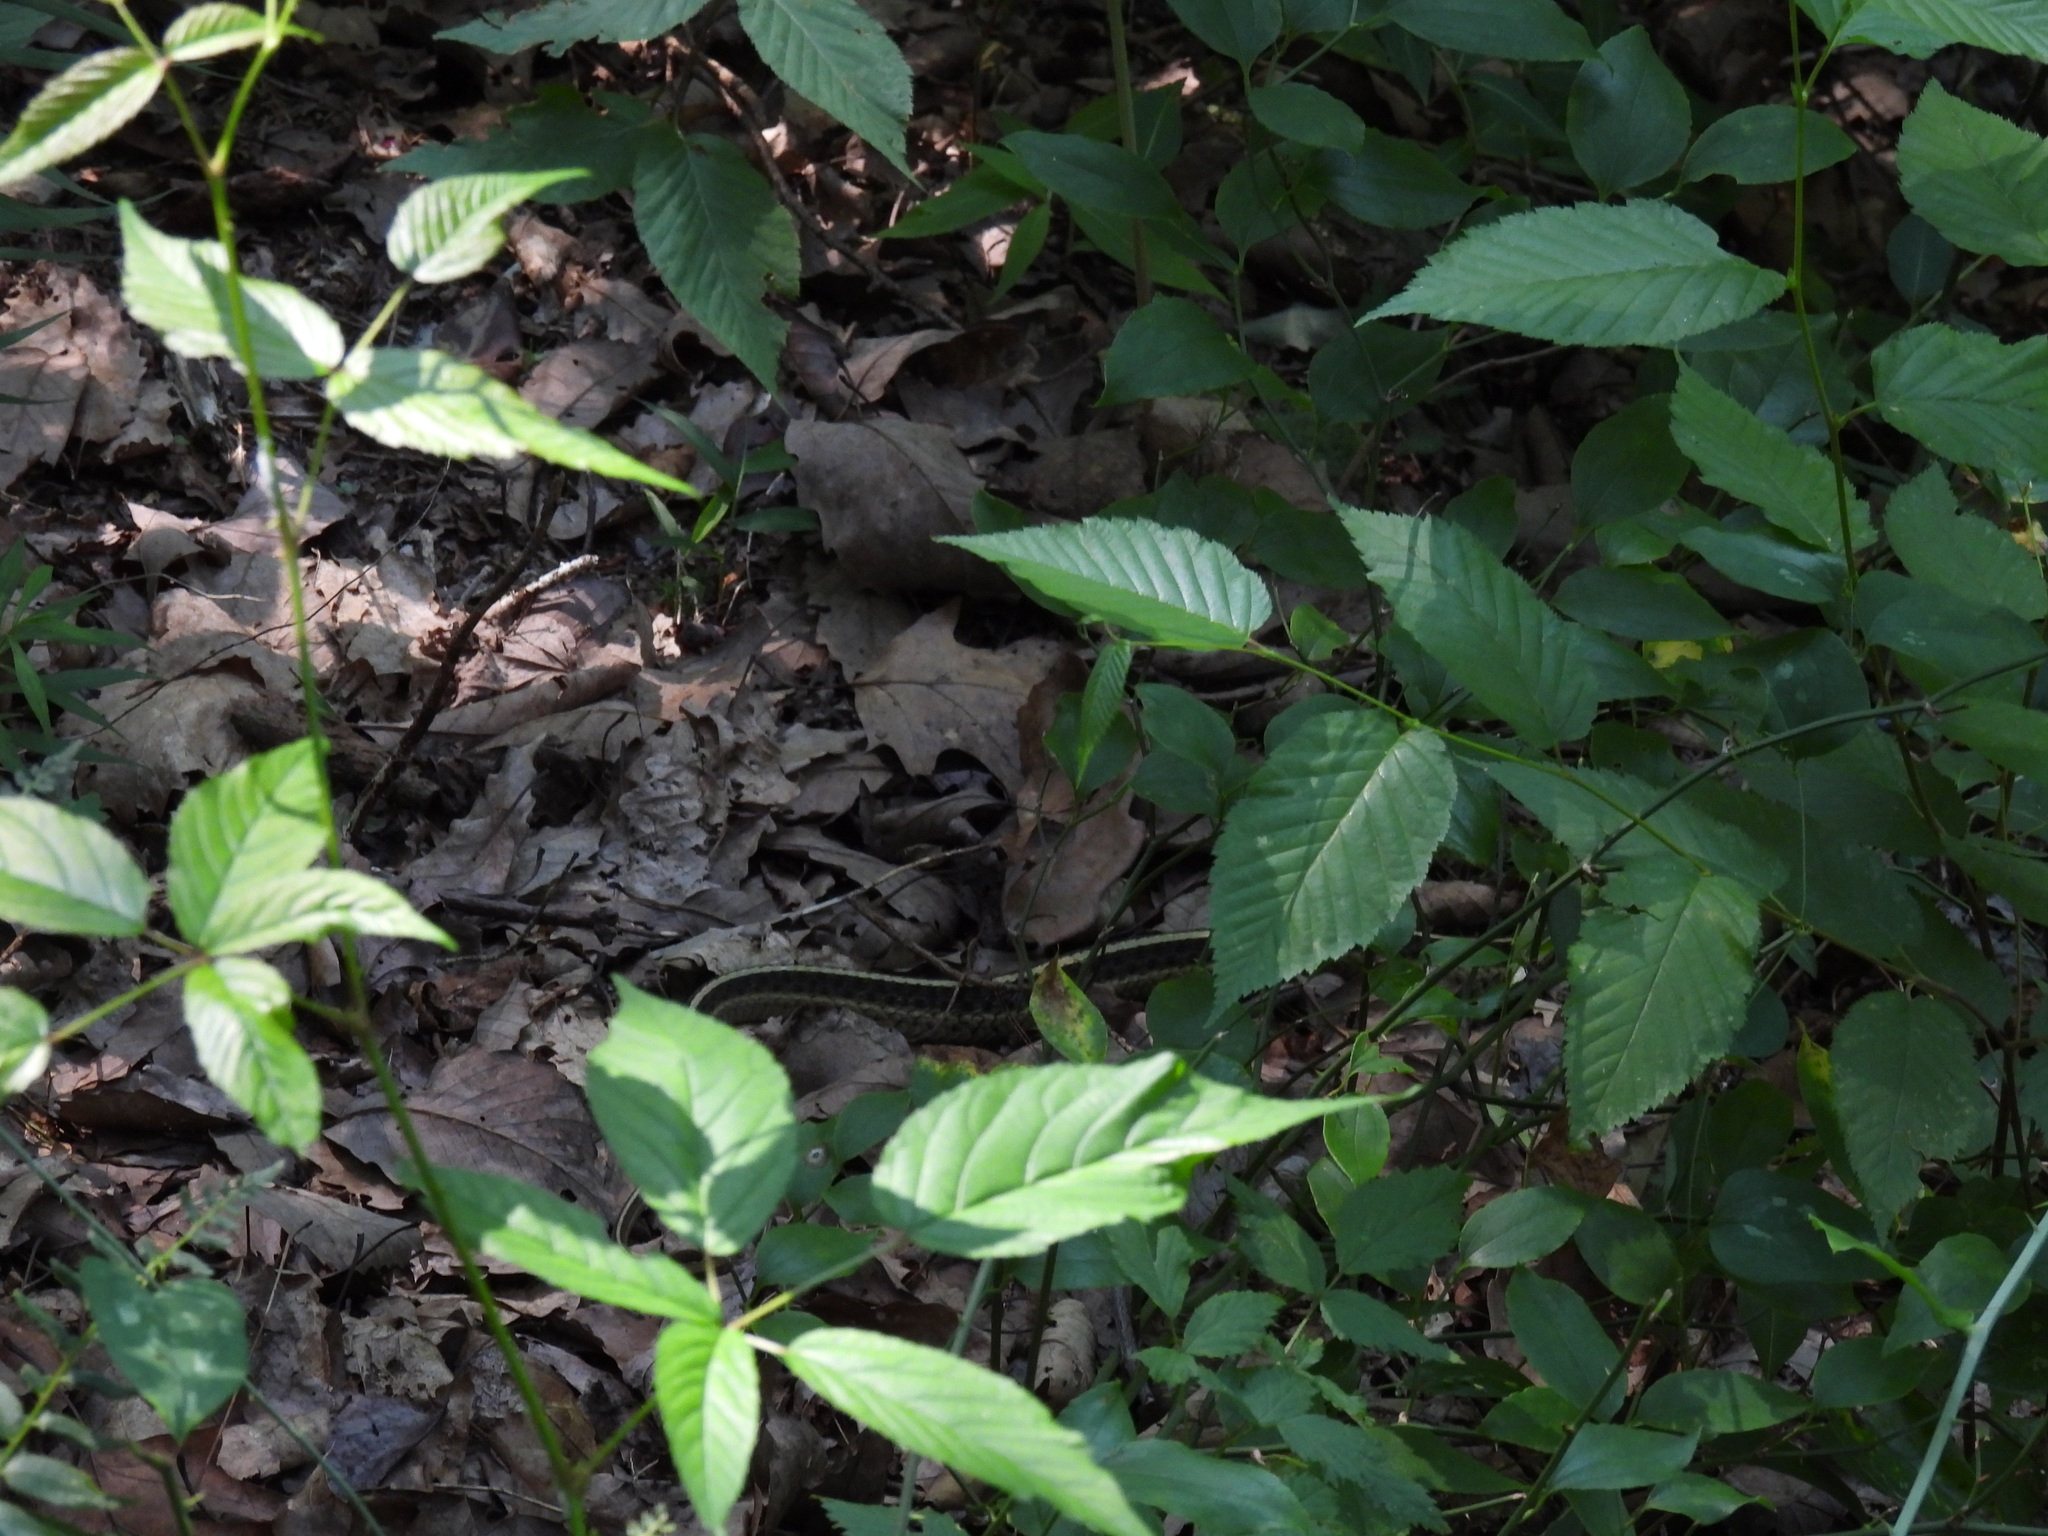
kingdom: Animalia
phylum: Chordata
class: Squamata
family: Colubridae
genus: Thamnophis
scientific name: Thamnophis sirtalis
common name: Common garter snake
